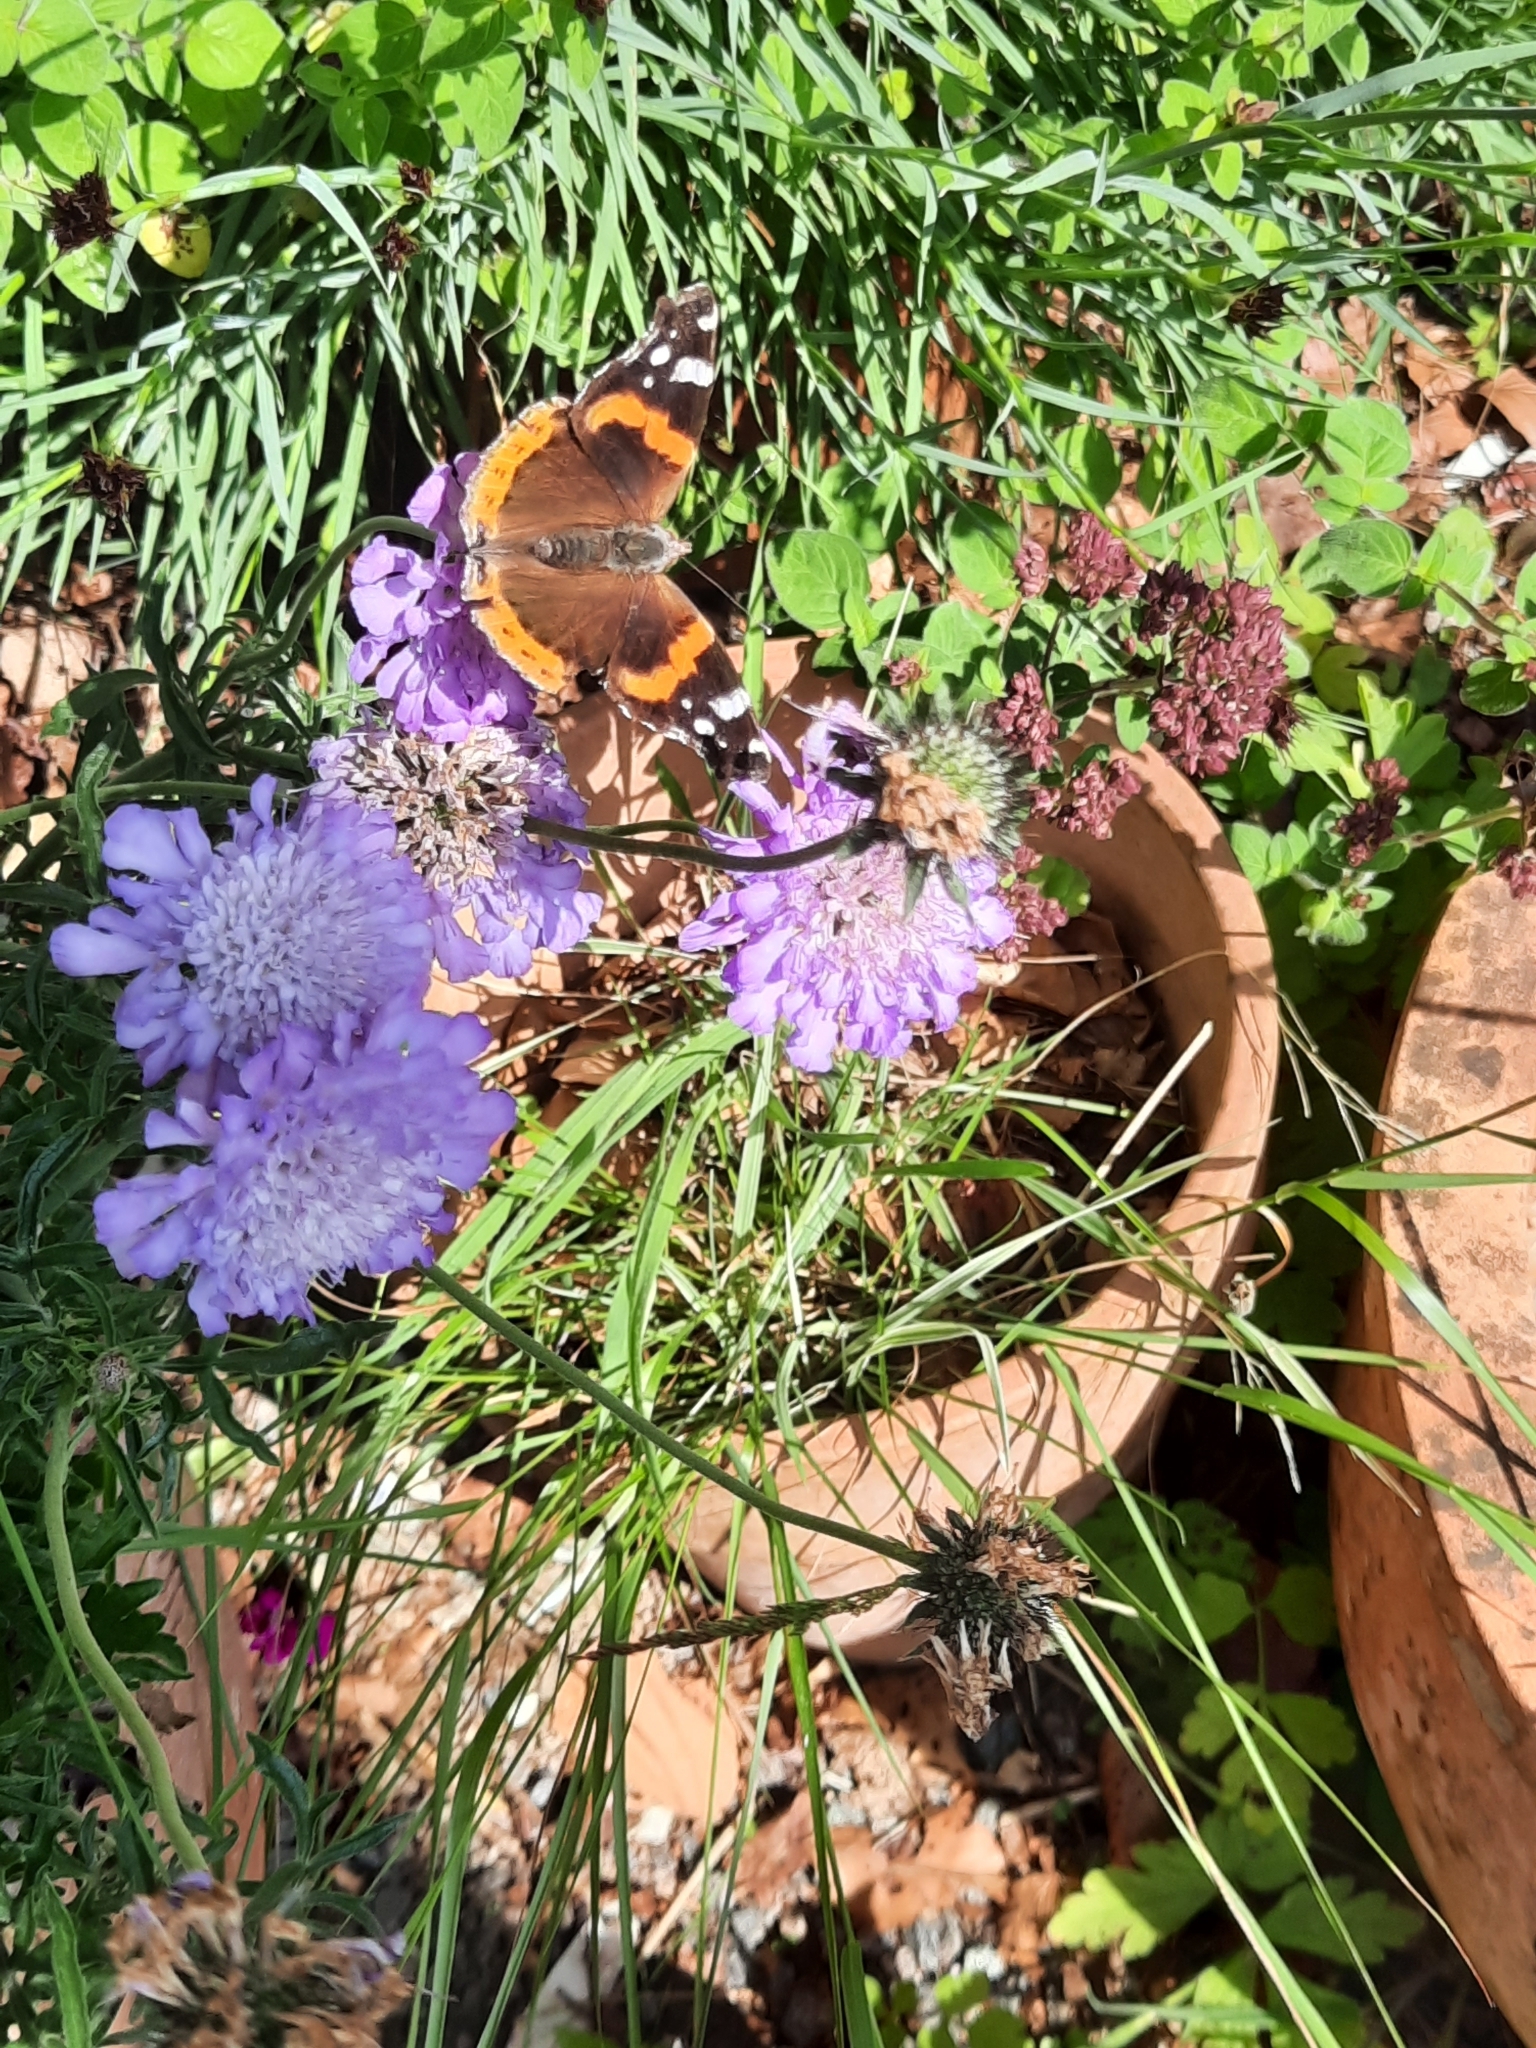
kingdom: Animalia
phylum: Arthropoda
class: Insecta
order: Lepidoptera
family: Nymphalidae
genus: Vanessa
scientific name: Vanessa atalanta
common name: Red admiral
